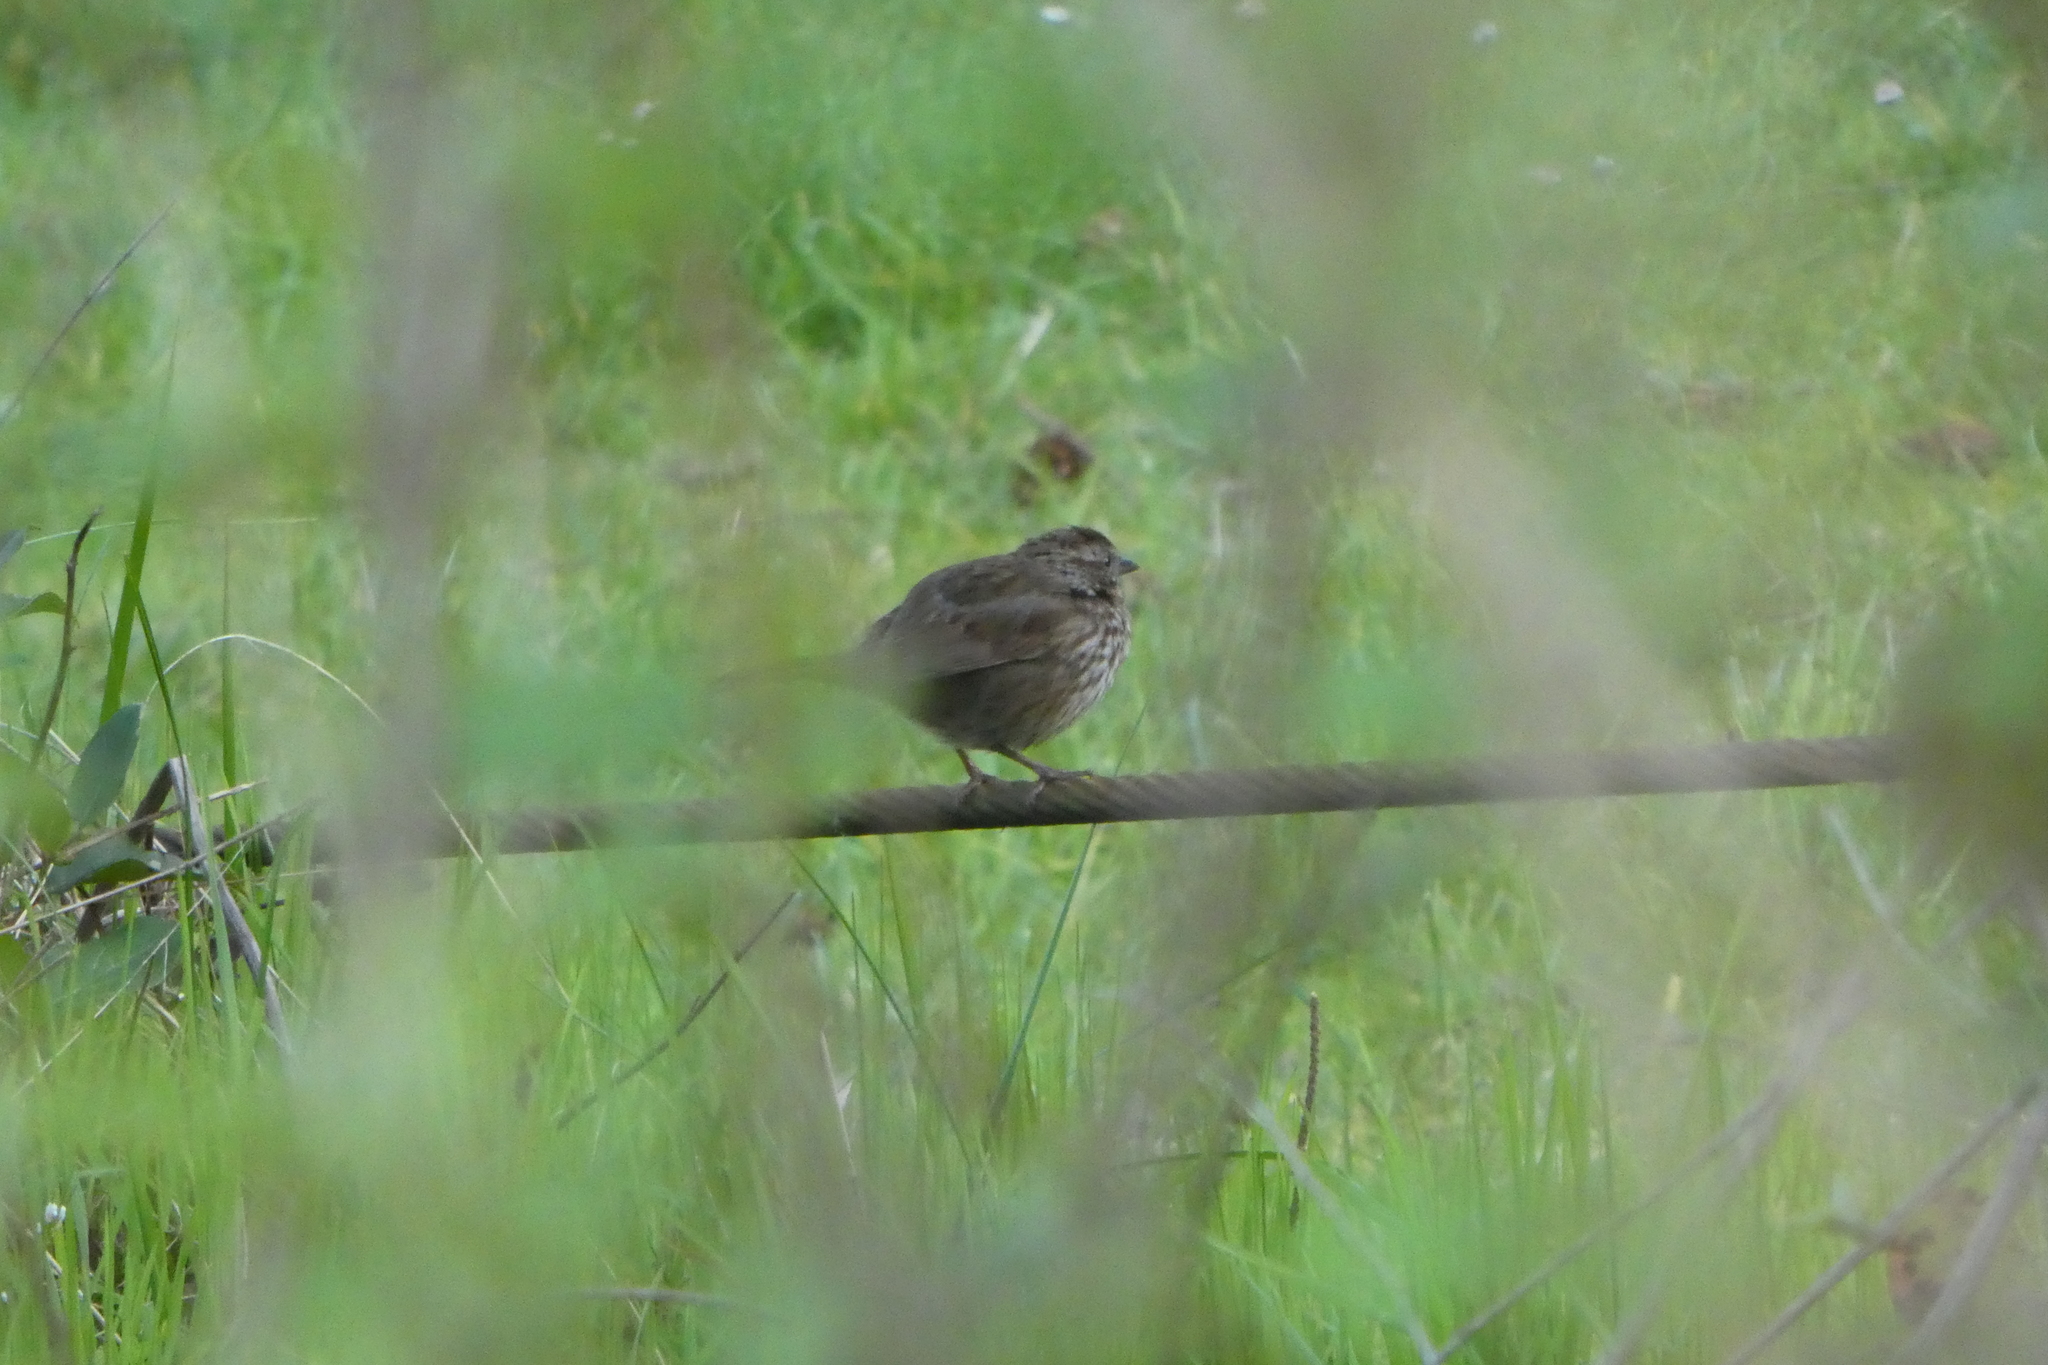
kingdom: Animalia
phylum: Chordata
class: Aves
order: Passeriformes
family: Passerellidae
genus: Melospiza
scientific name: Melospiza melodia
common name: Song sparrow
